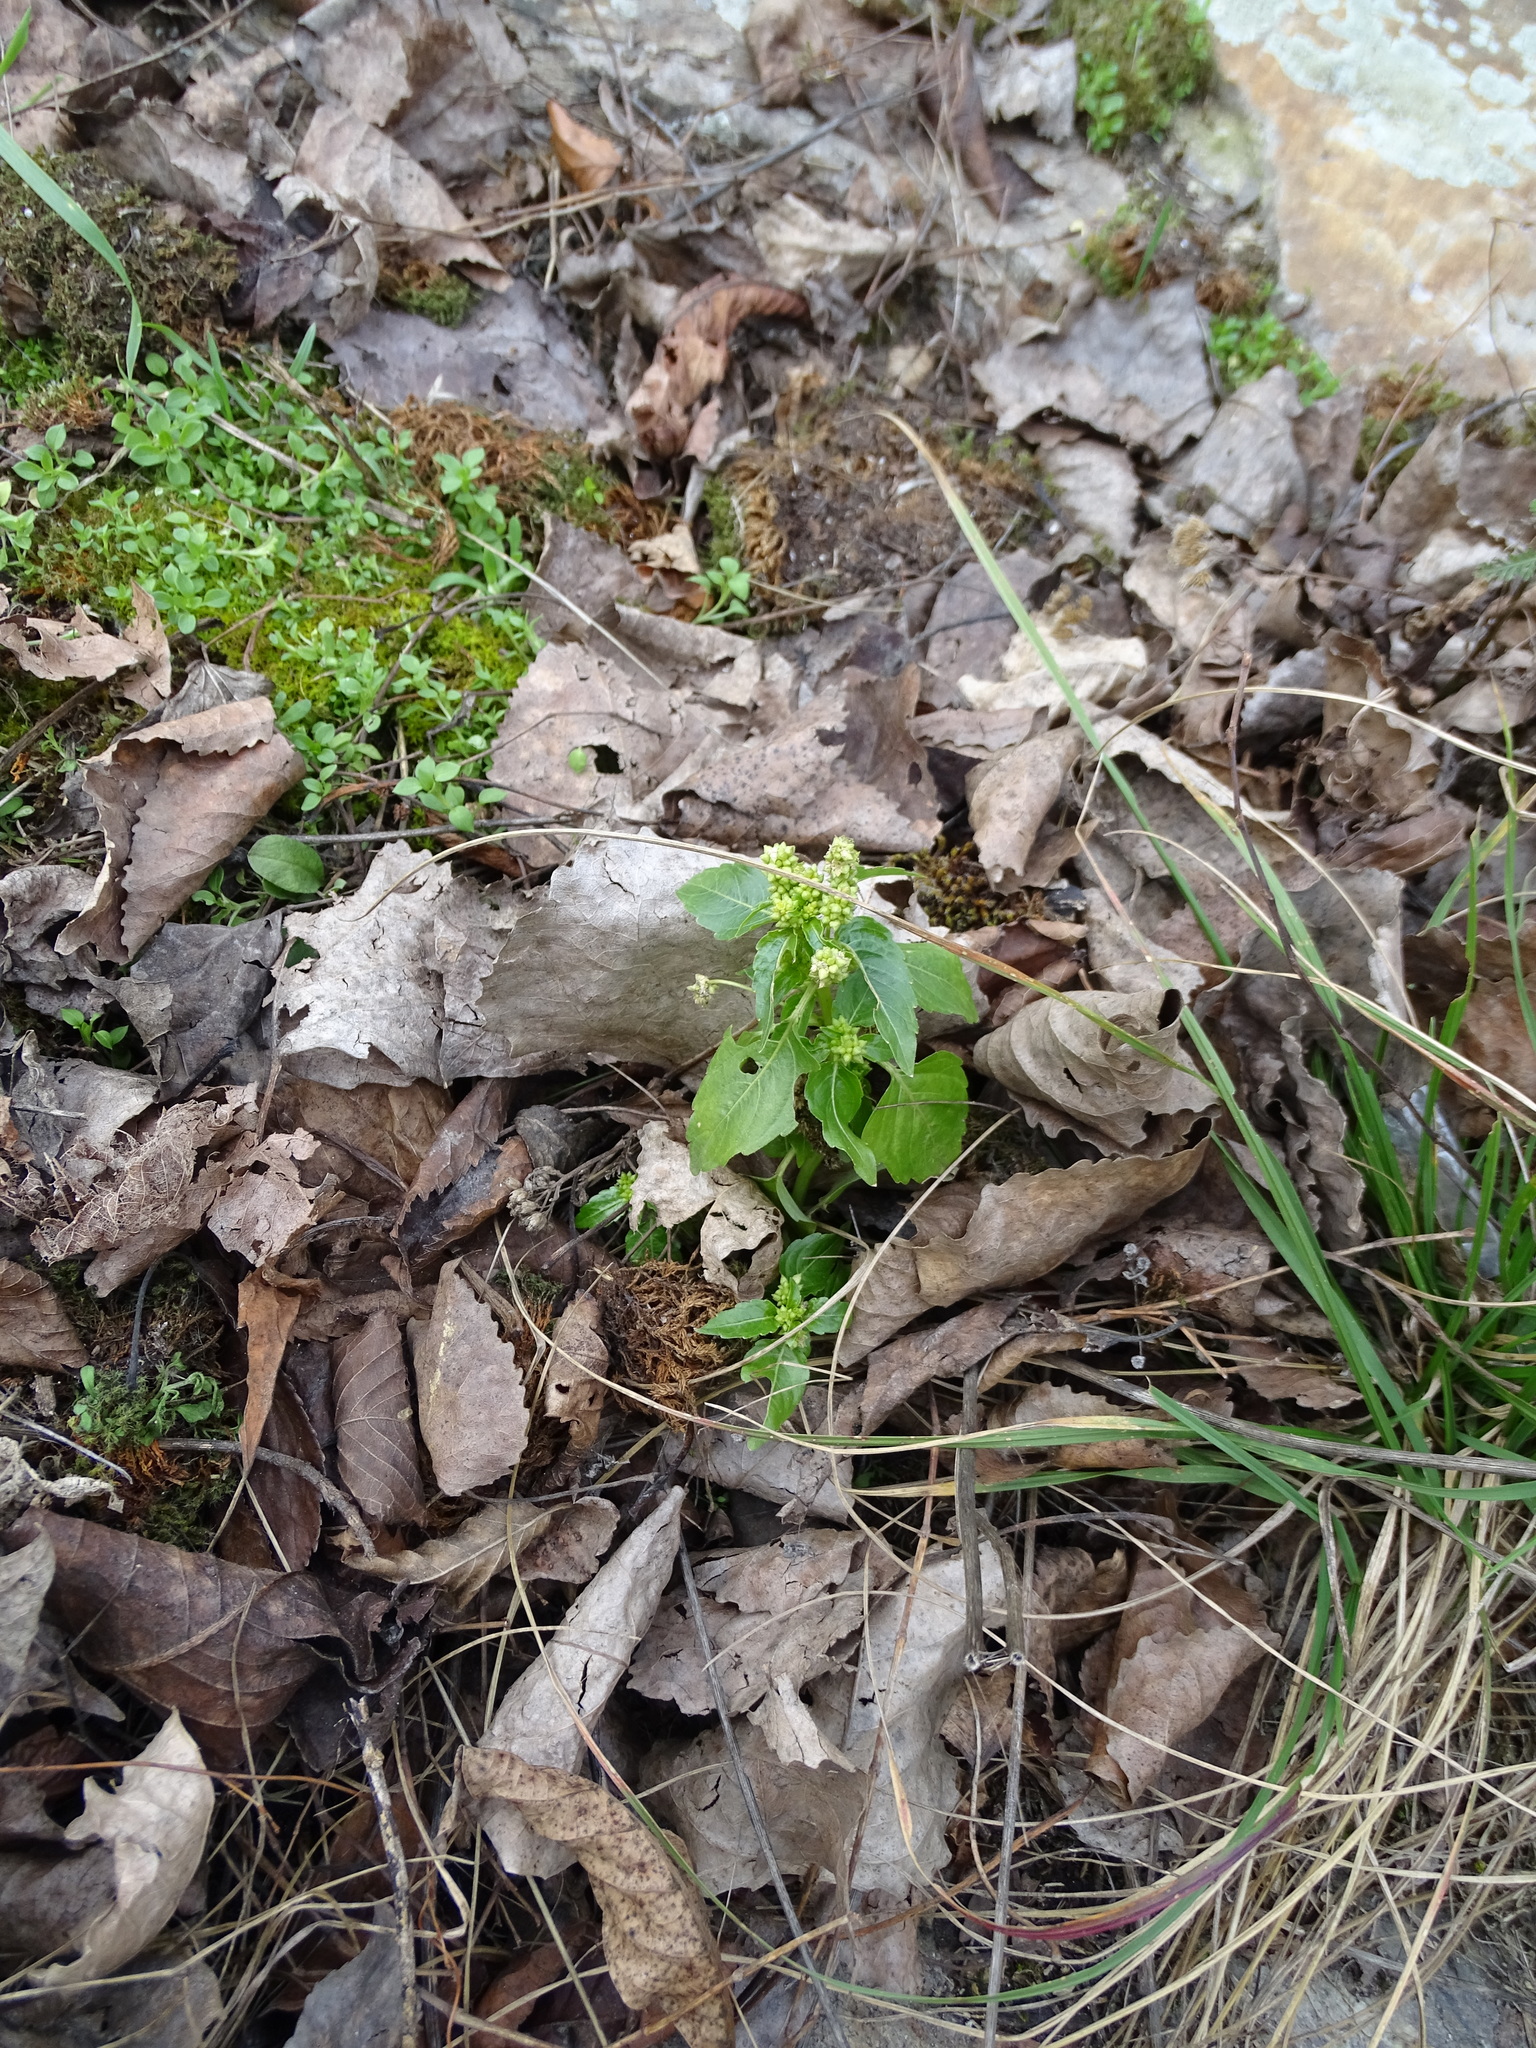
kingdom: Plantae
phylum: Tracheophyta
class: Magnoliopsida
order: Malpighiales
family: Euphorbiaceae
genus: Mercurialis
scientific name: Mercurialis annua
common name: Annual mercury
